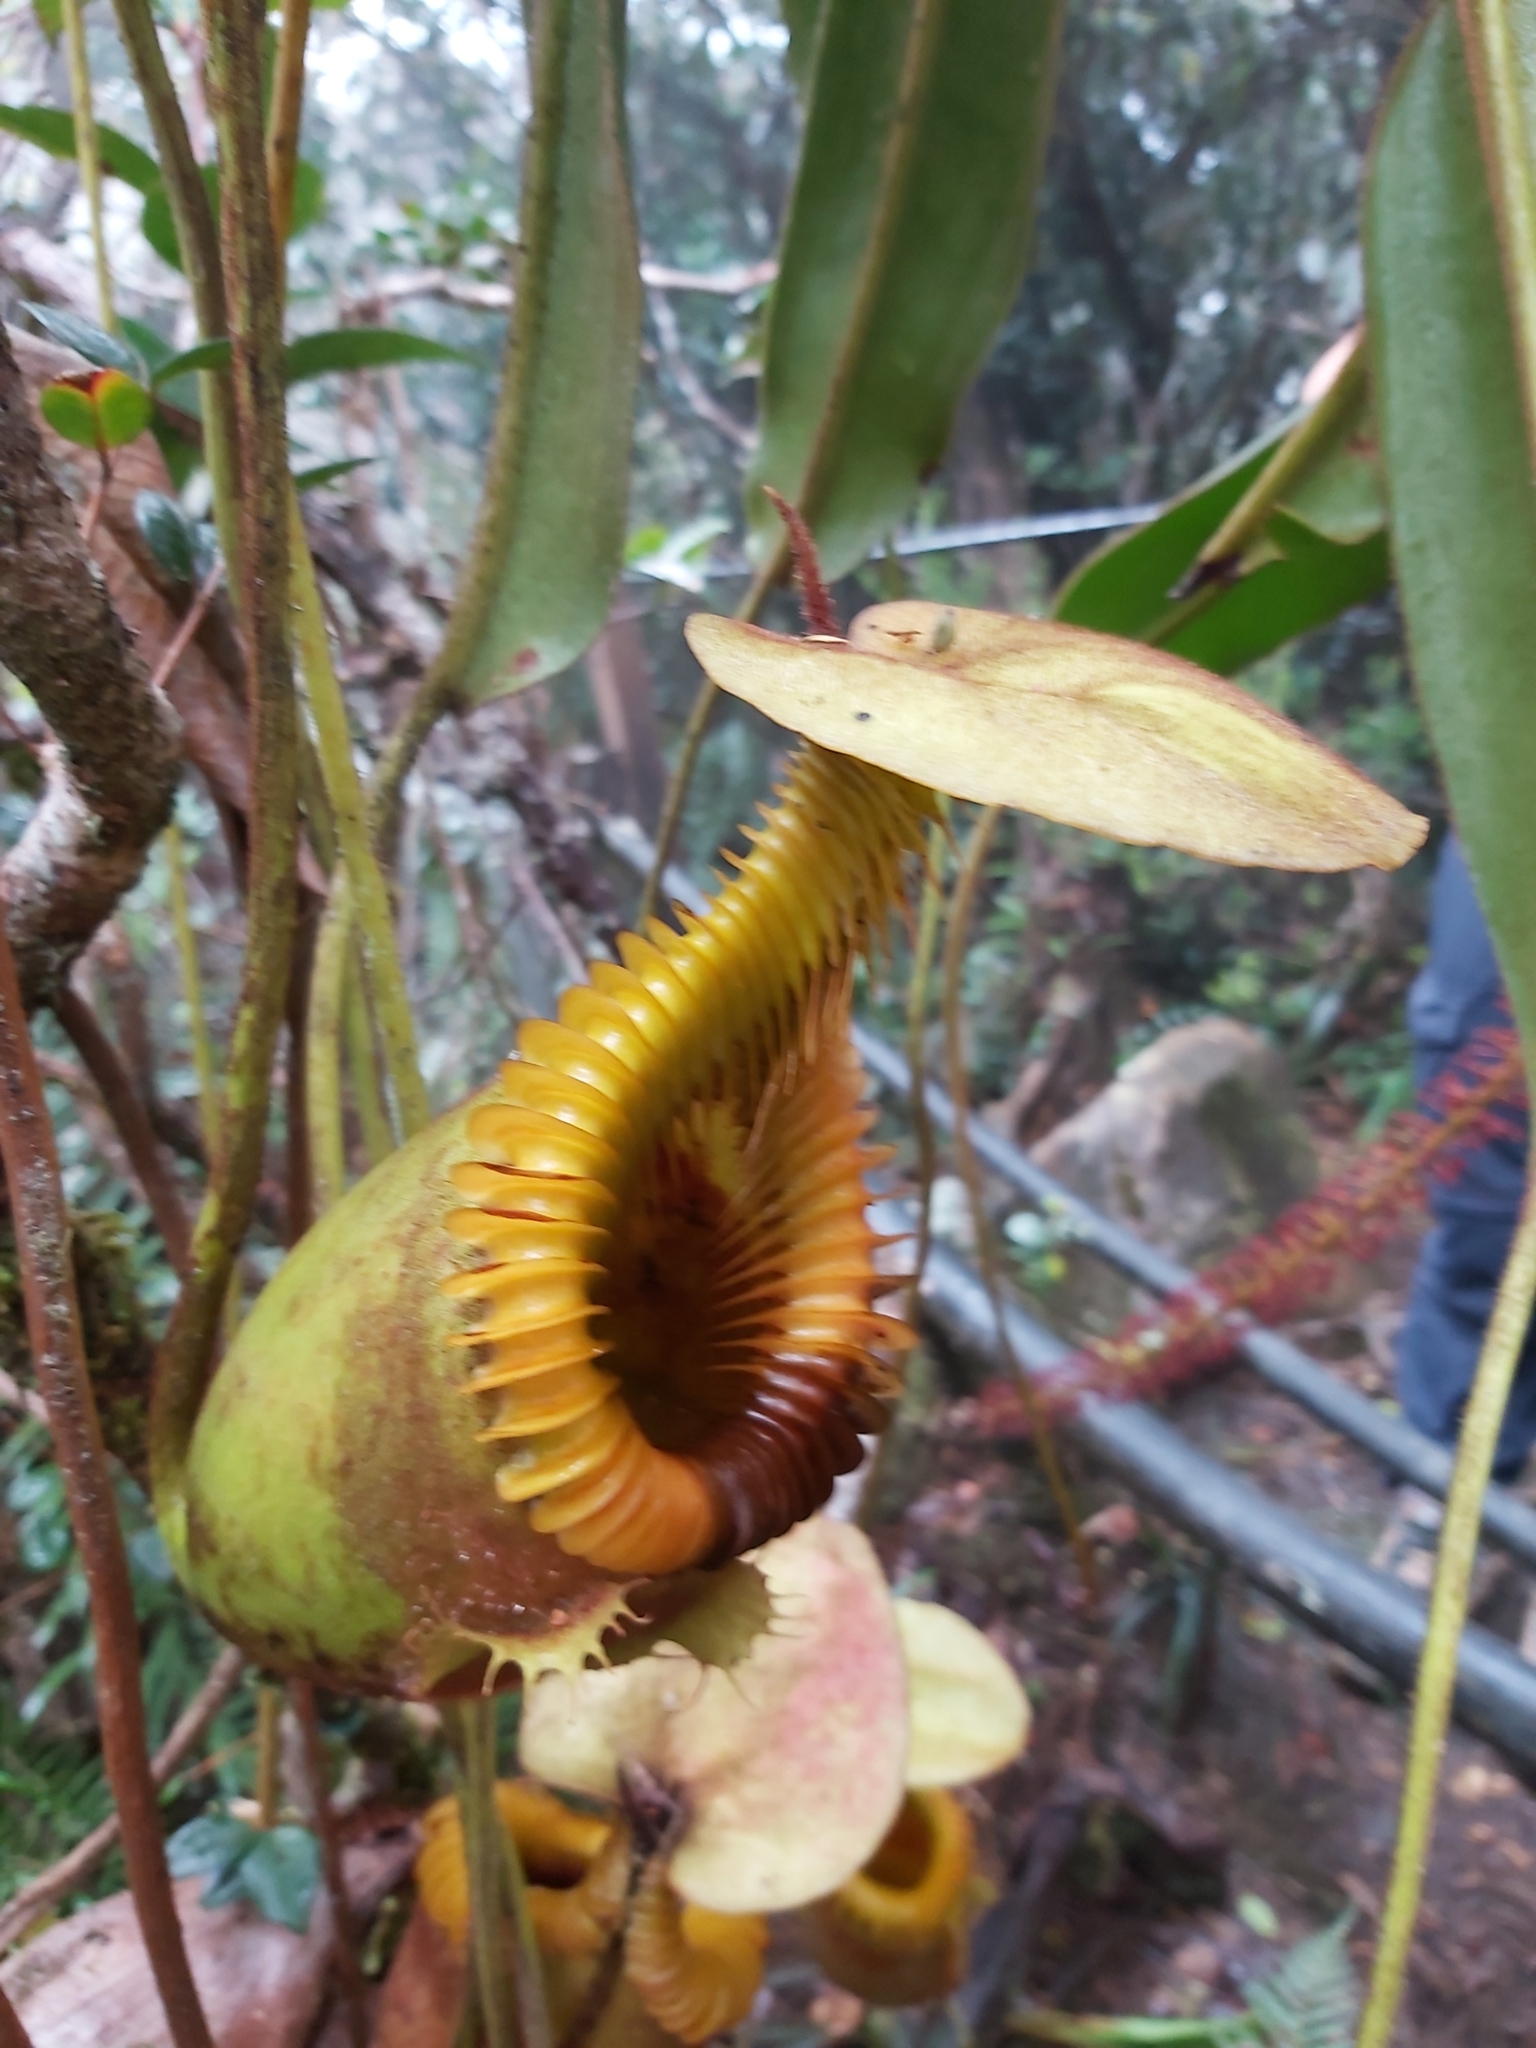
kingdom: Plantae
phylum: Tracheophyta
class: Magnoliopsida
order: Caryophyllales
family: Nepenthaceae
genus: Nepenthes
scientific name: Nepenthes villosa
